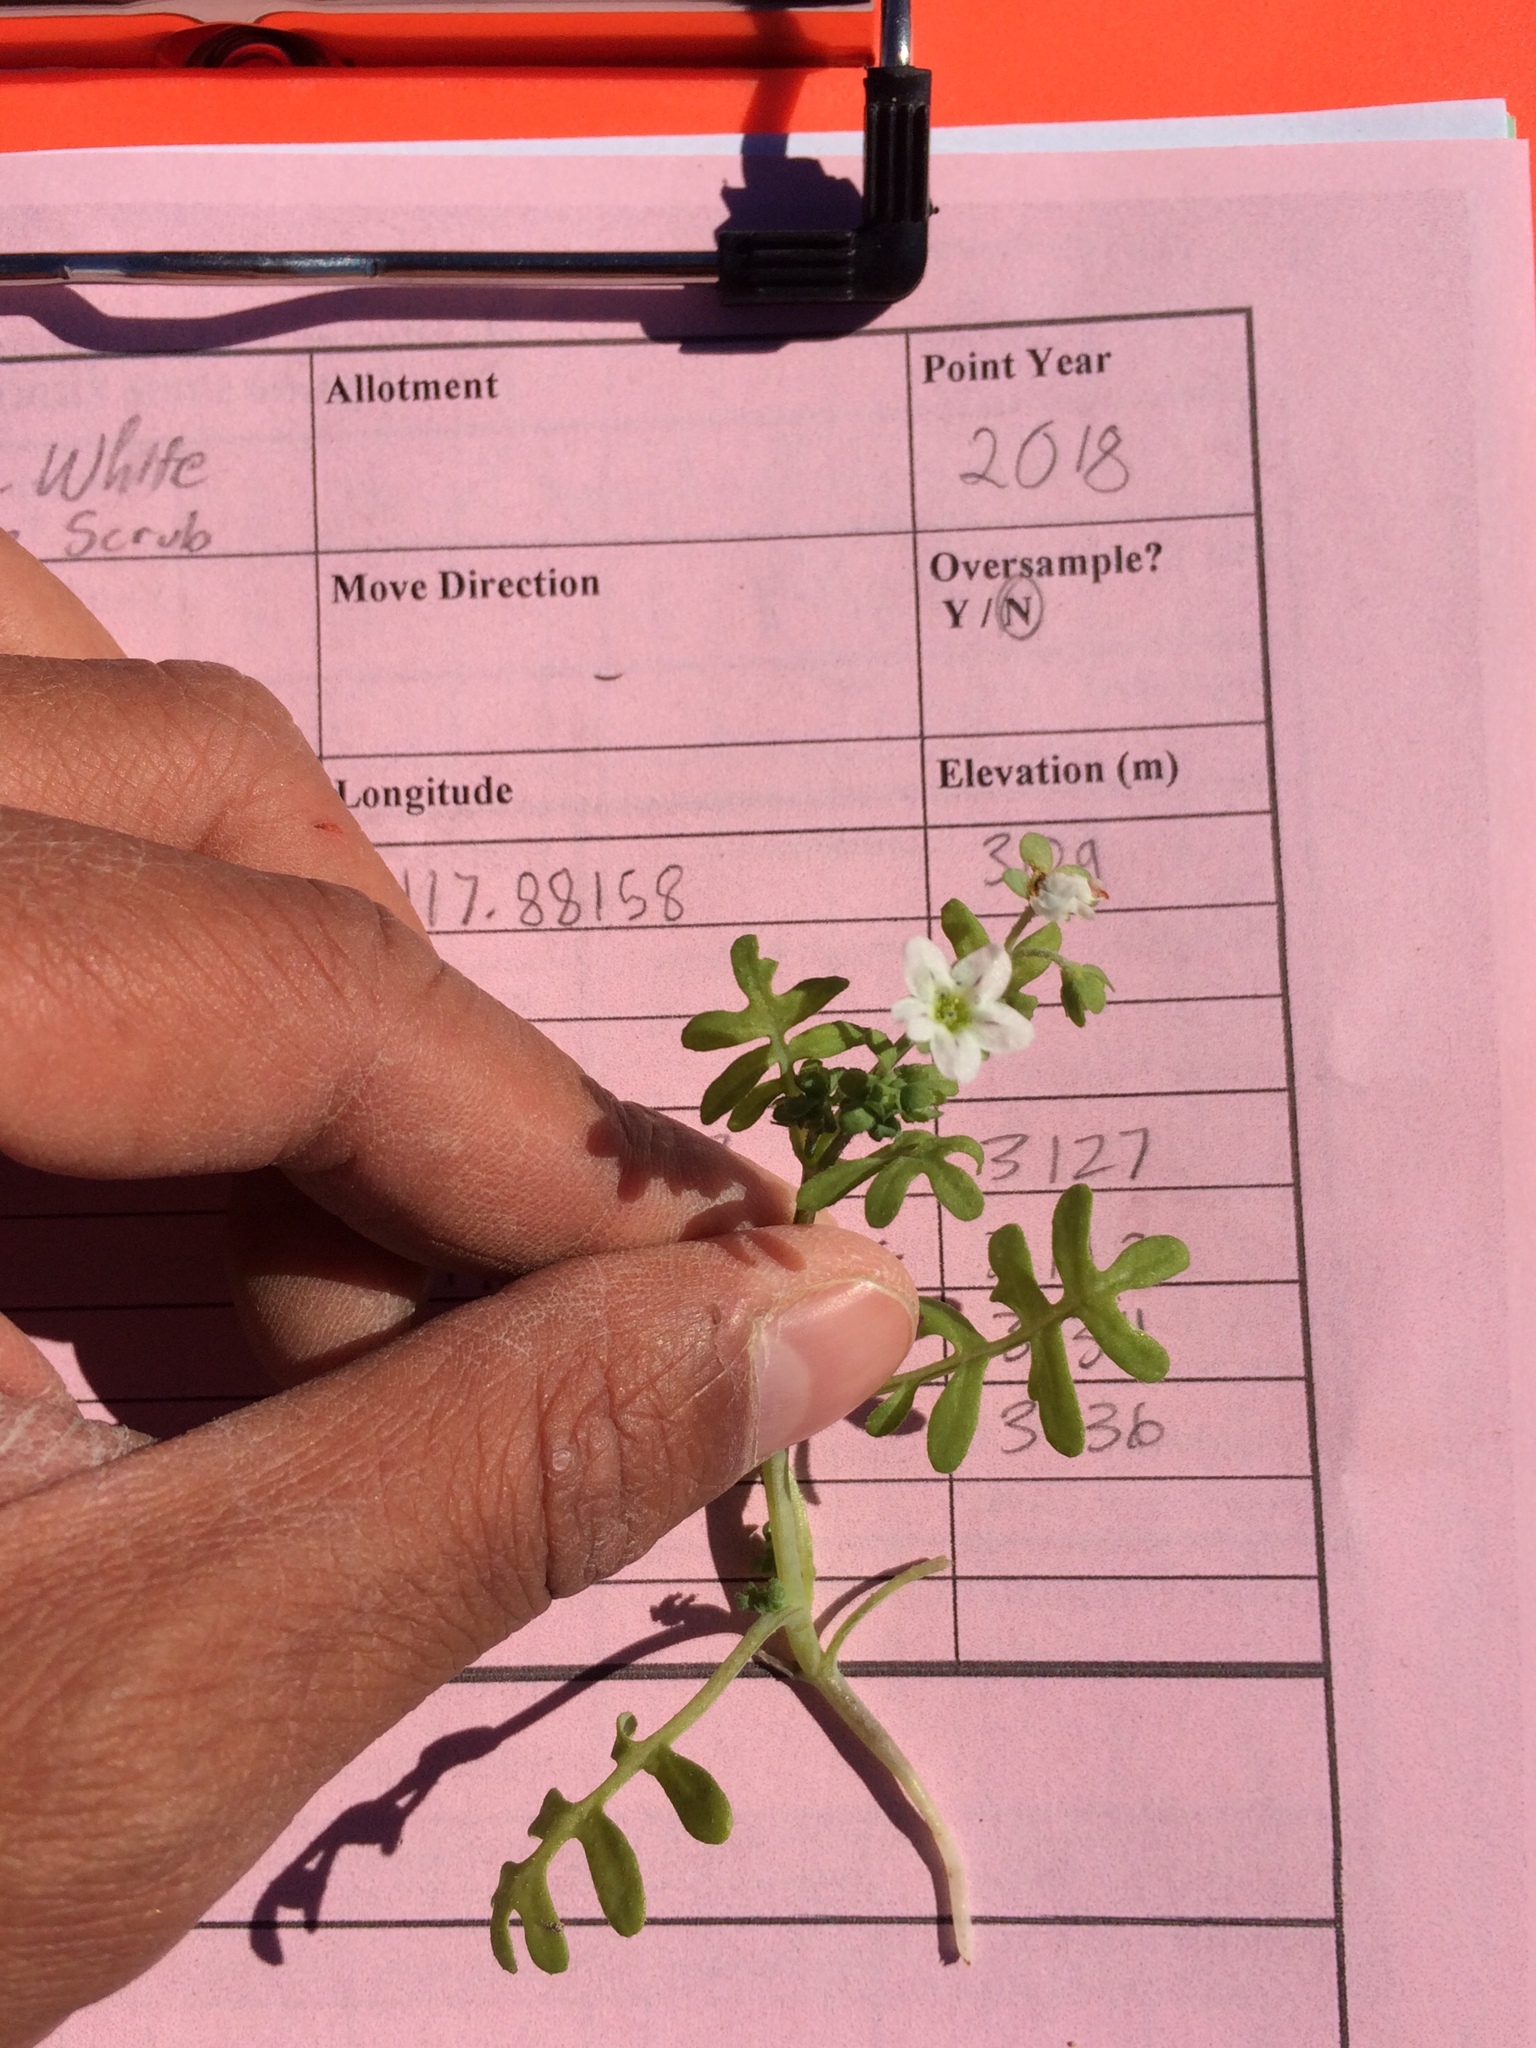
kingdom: Plantae
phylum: Tracheophyta
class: Magnoliopsida
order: Boraginales
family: Hydrophyllaceae
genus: Pholistoma
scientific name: Pholistoma membranaceum
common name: White fiesta-flower
